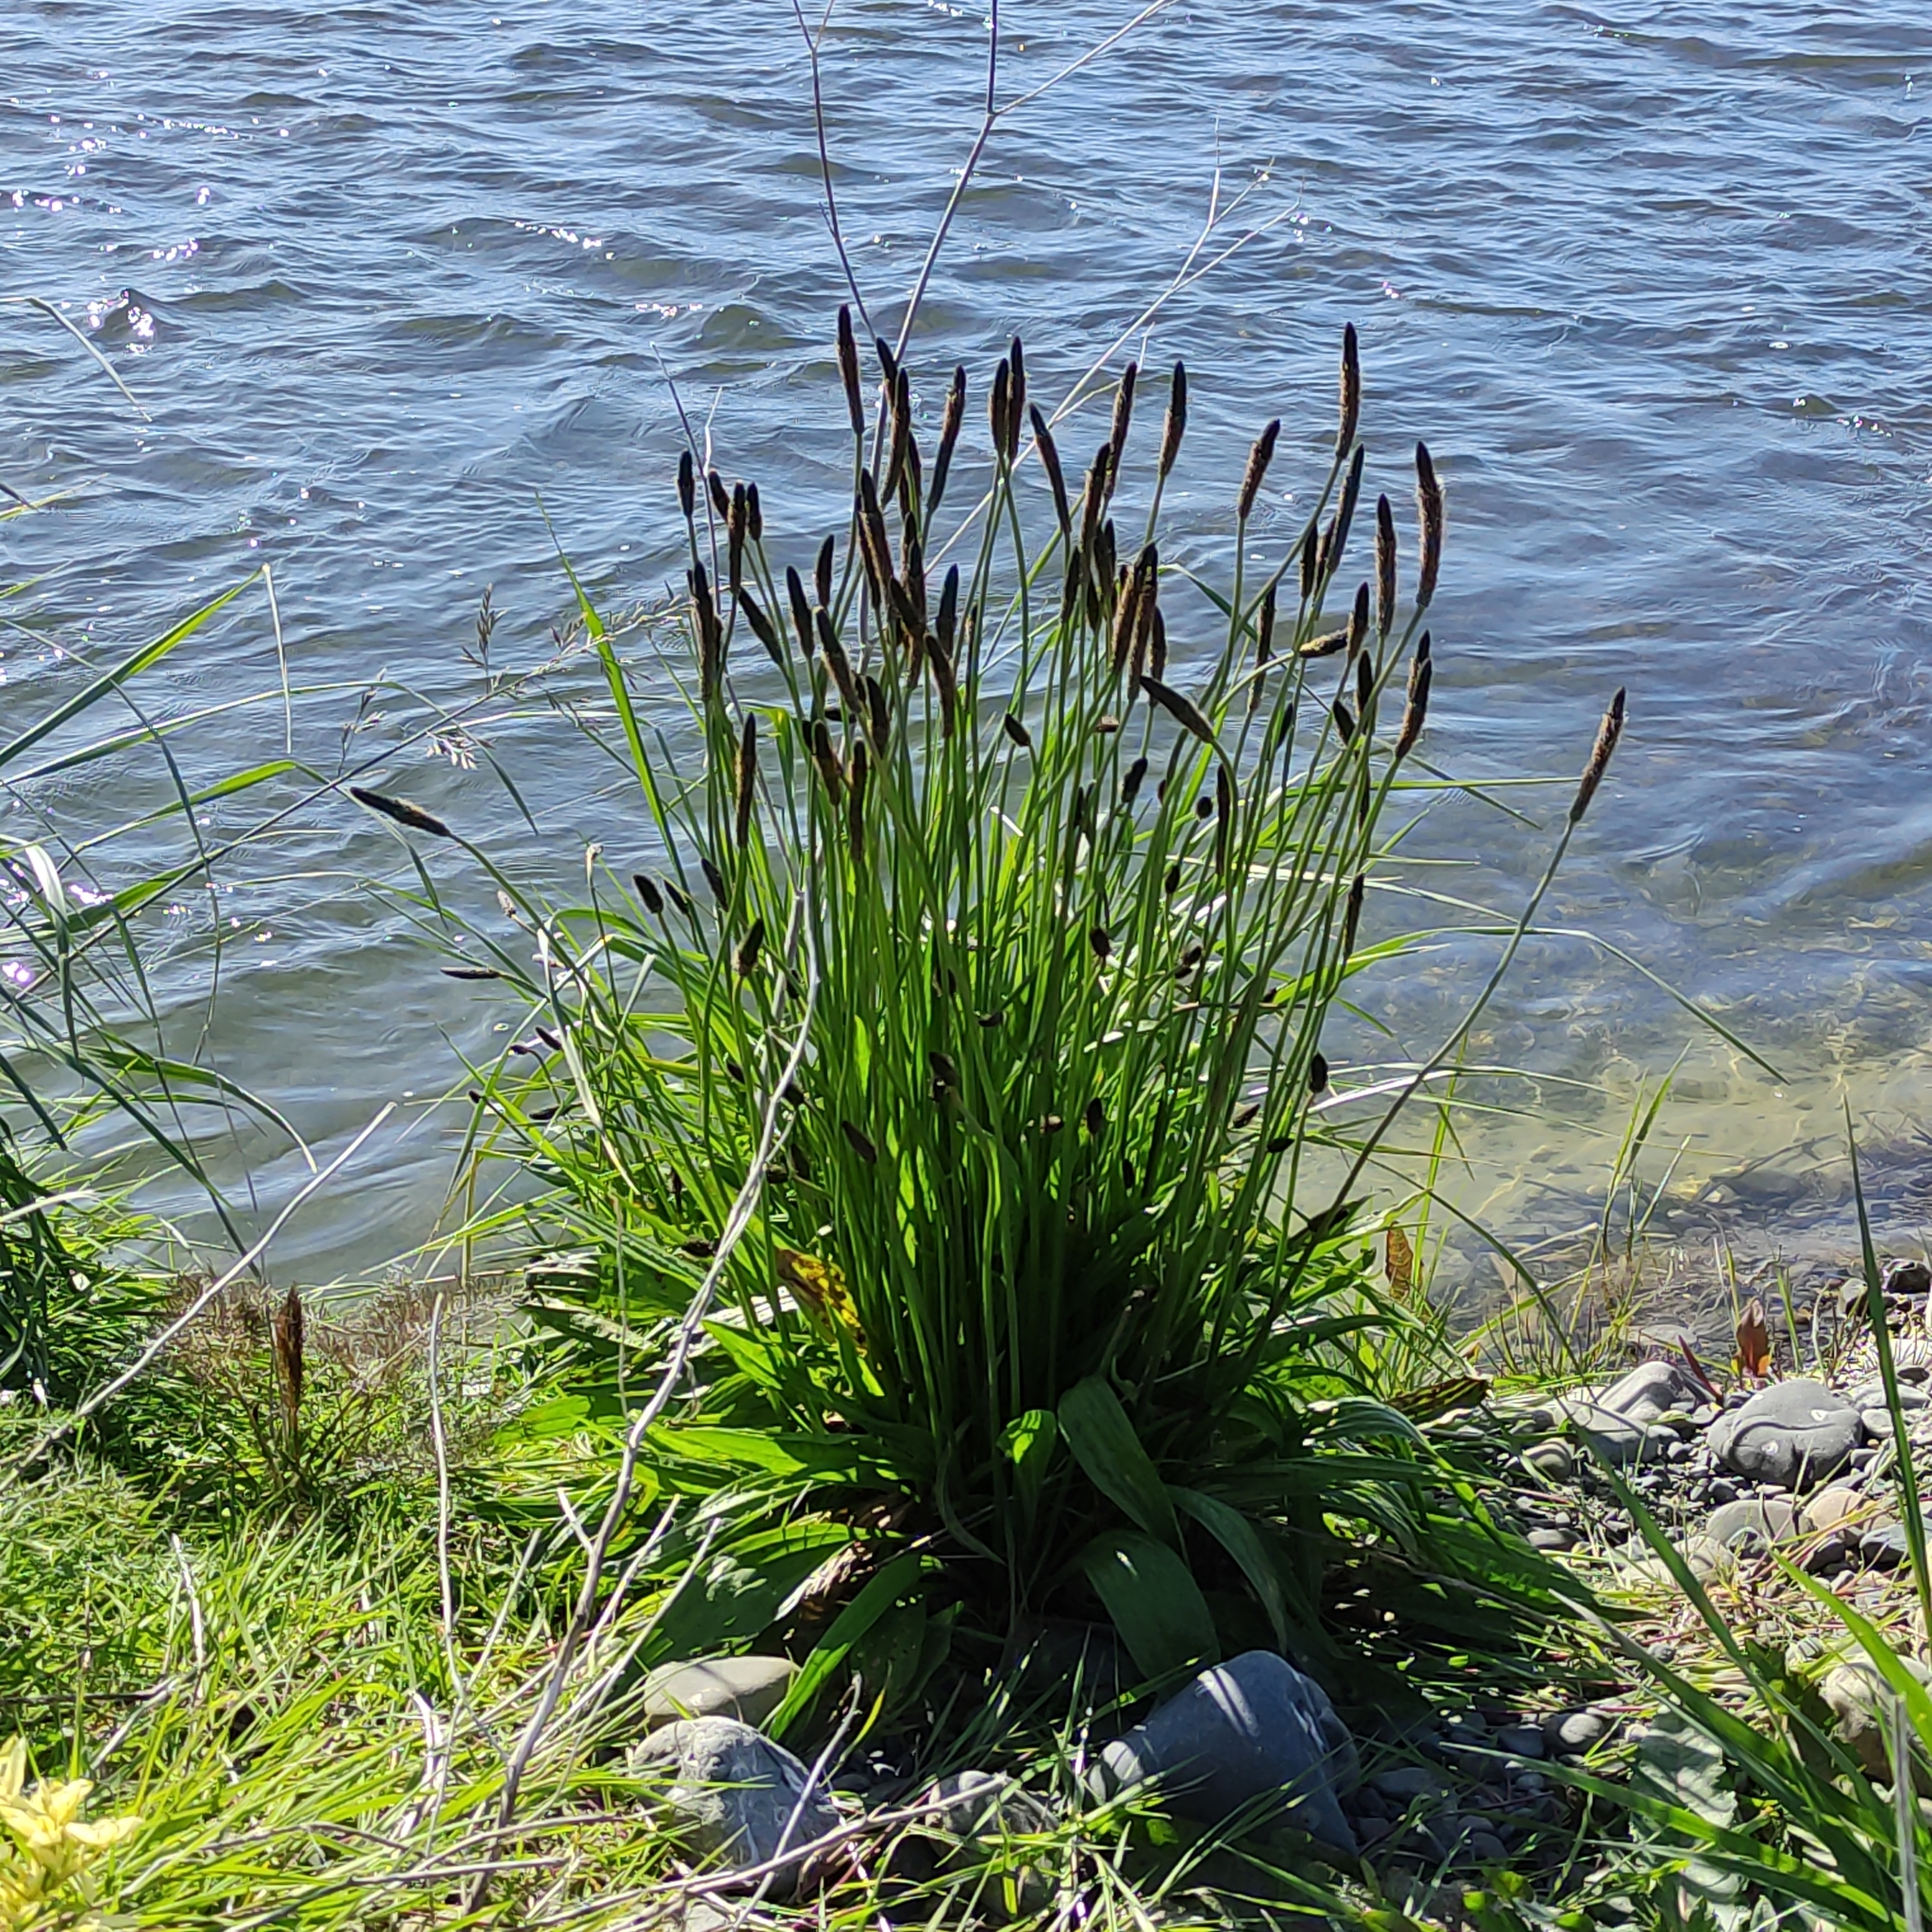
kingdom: Plantae
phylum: Tracheophyta
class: Magnoliopsida
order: Lamiales
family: Plantaginaceae
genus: Plantago
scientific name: Plantago lanceolata
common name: Ribwort plantain
